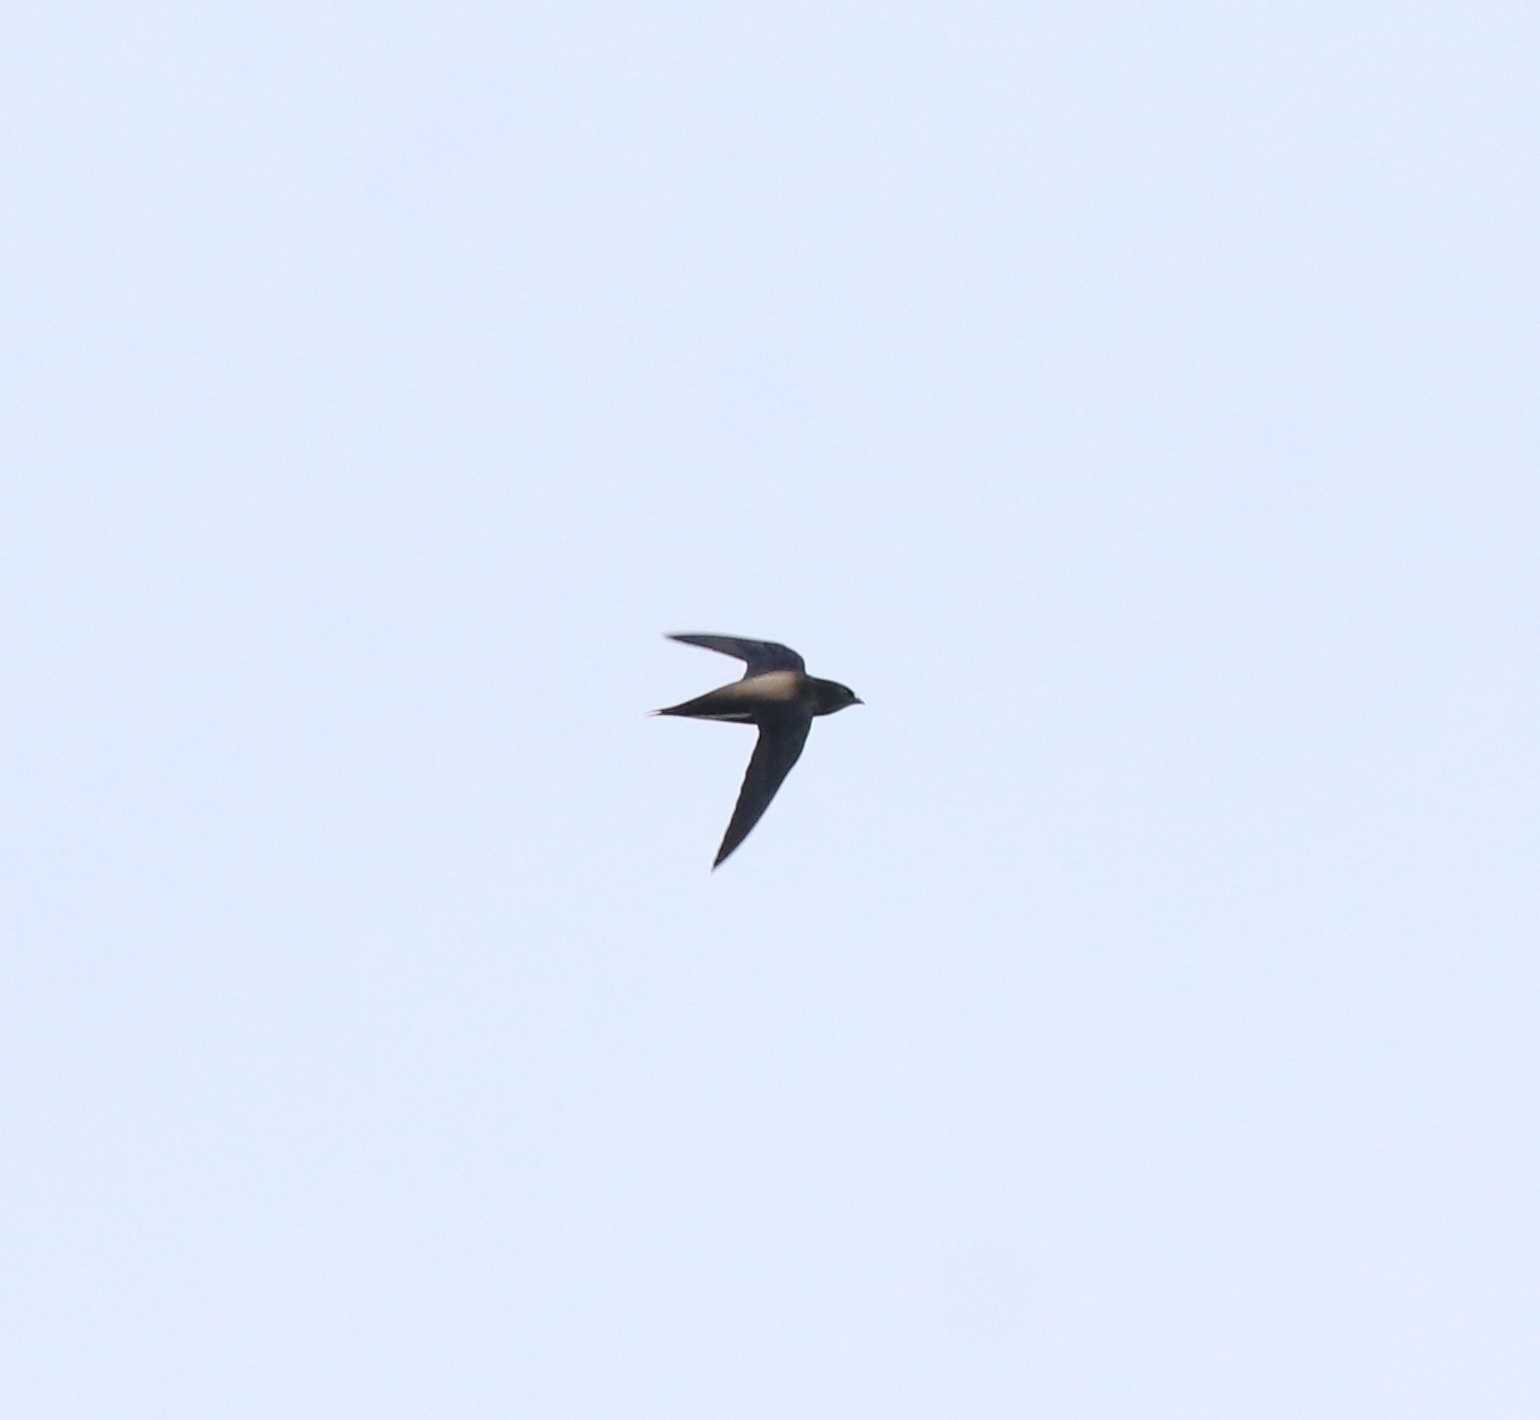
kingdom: Animalia
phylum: Chordata
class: Aves
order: Apodiformes
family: Apodidae
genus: Hirundapus
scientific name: Hirundapus giganteus
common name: Brown-backed needletail
